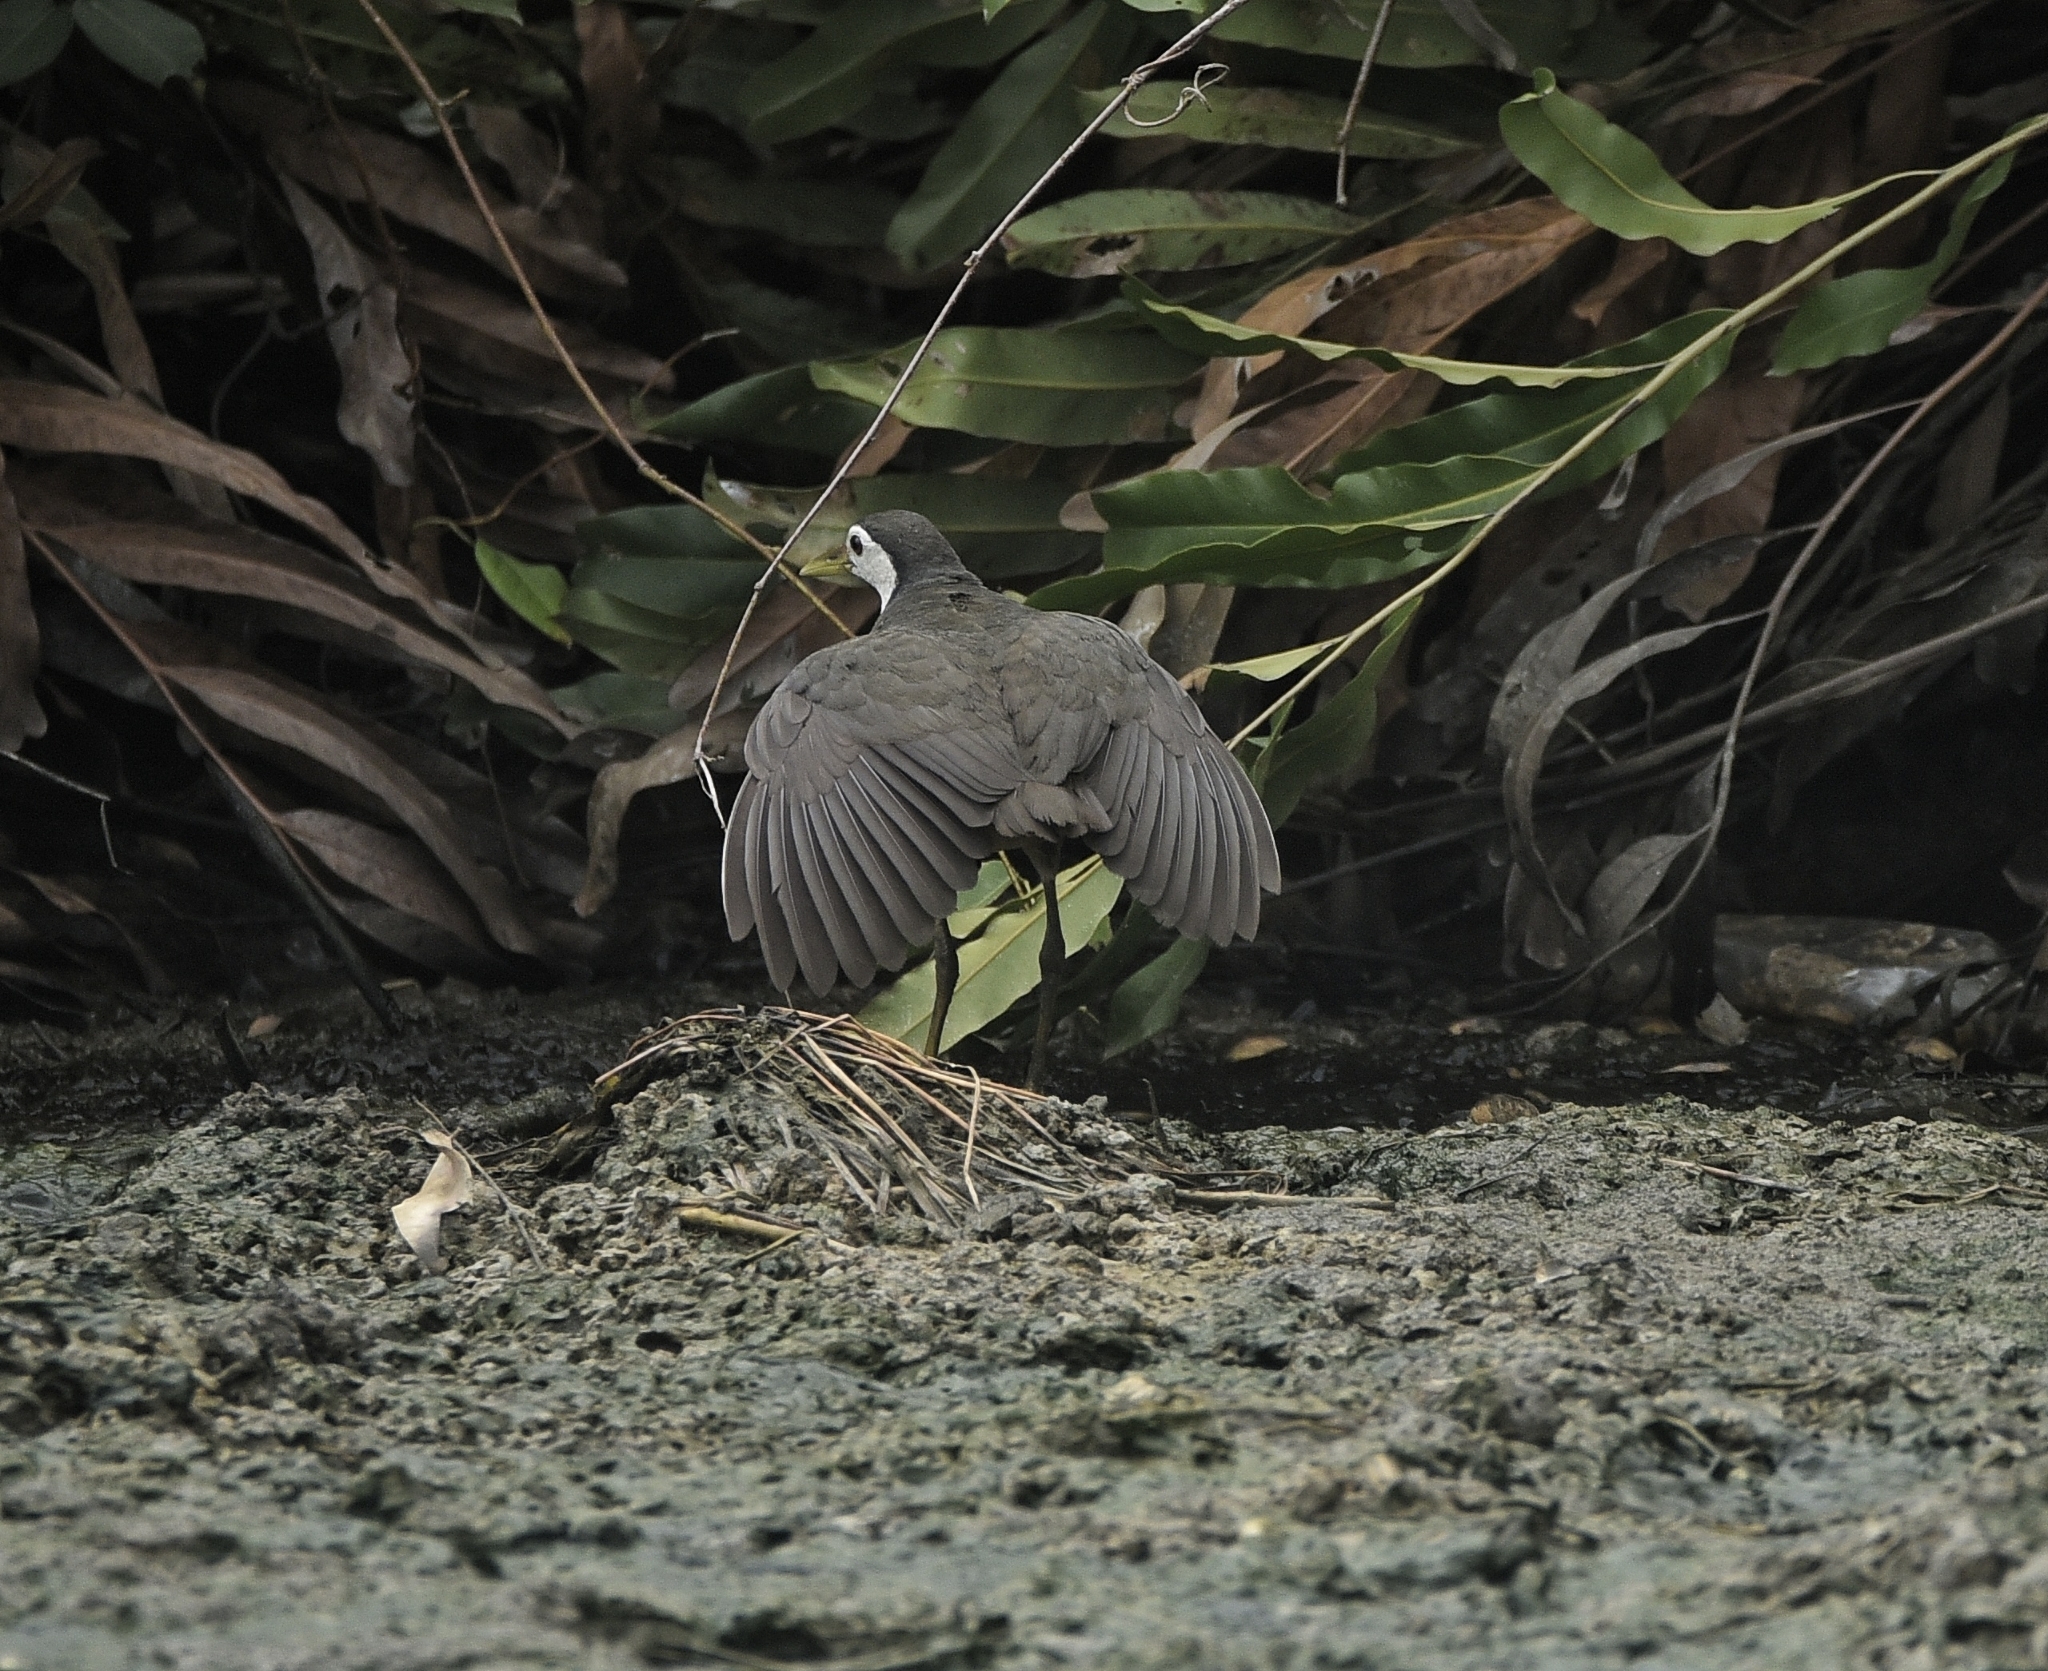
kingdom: Animalia
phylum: Chordata
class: Aves
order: Gruiformes
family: Rallidae
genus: Amaurornis
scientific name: Amaurornis phoenicurus
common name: White-breasted waterhen
